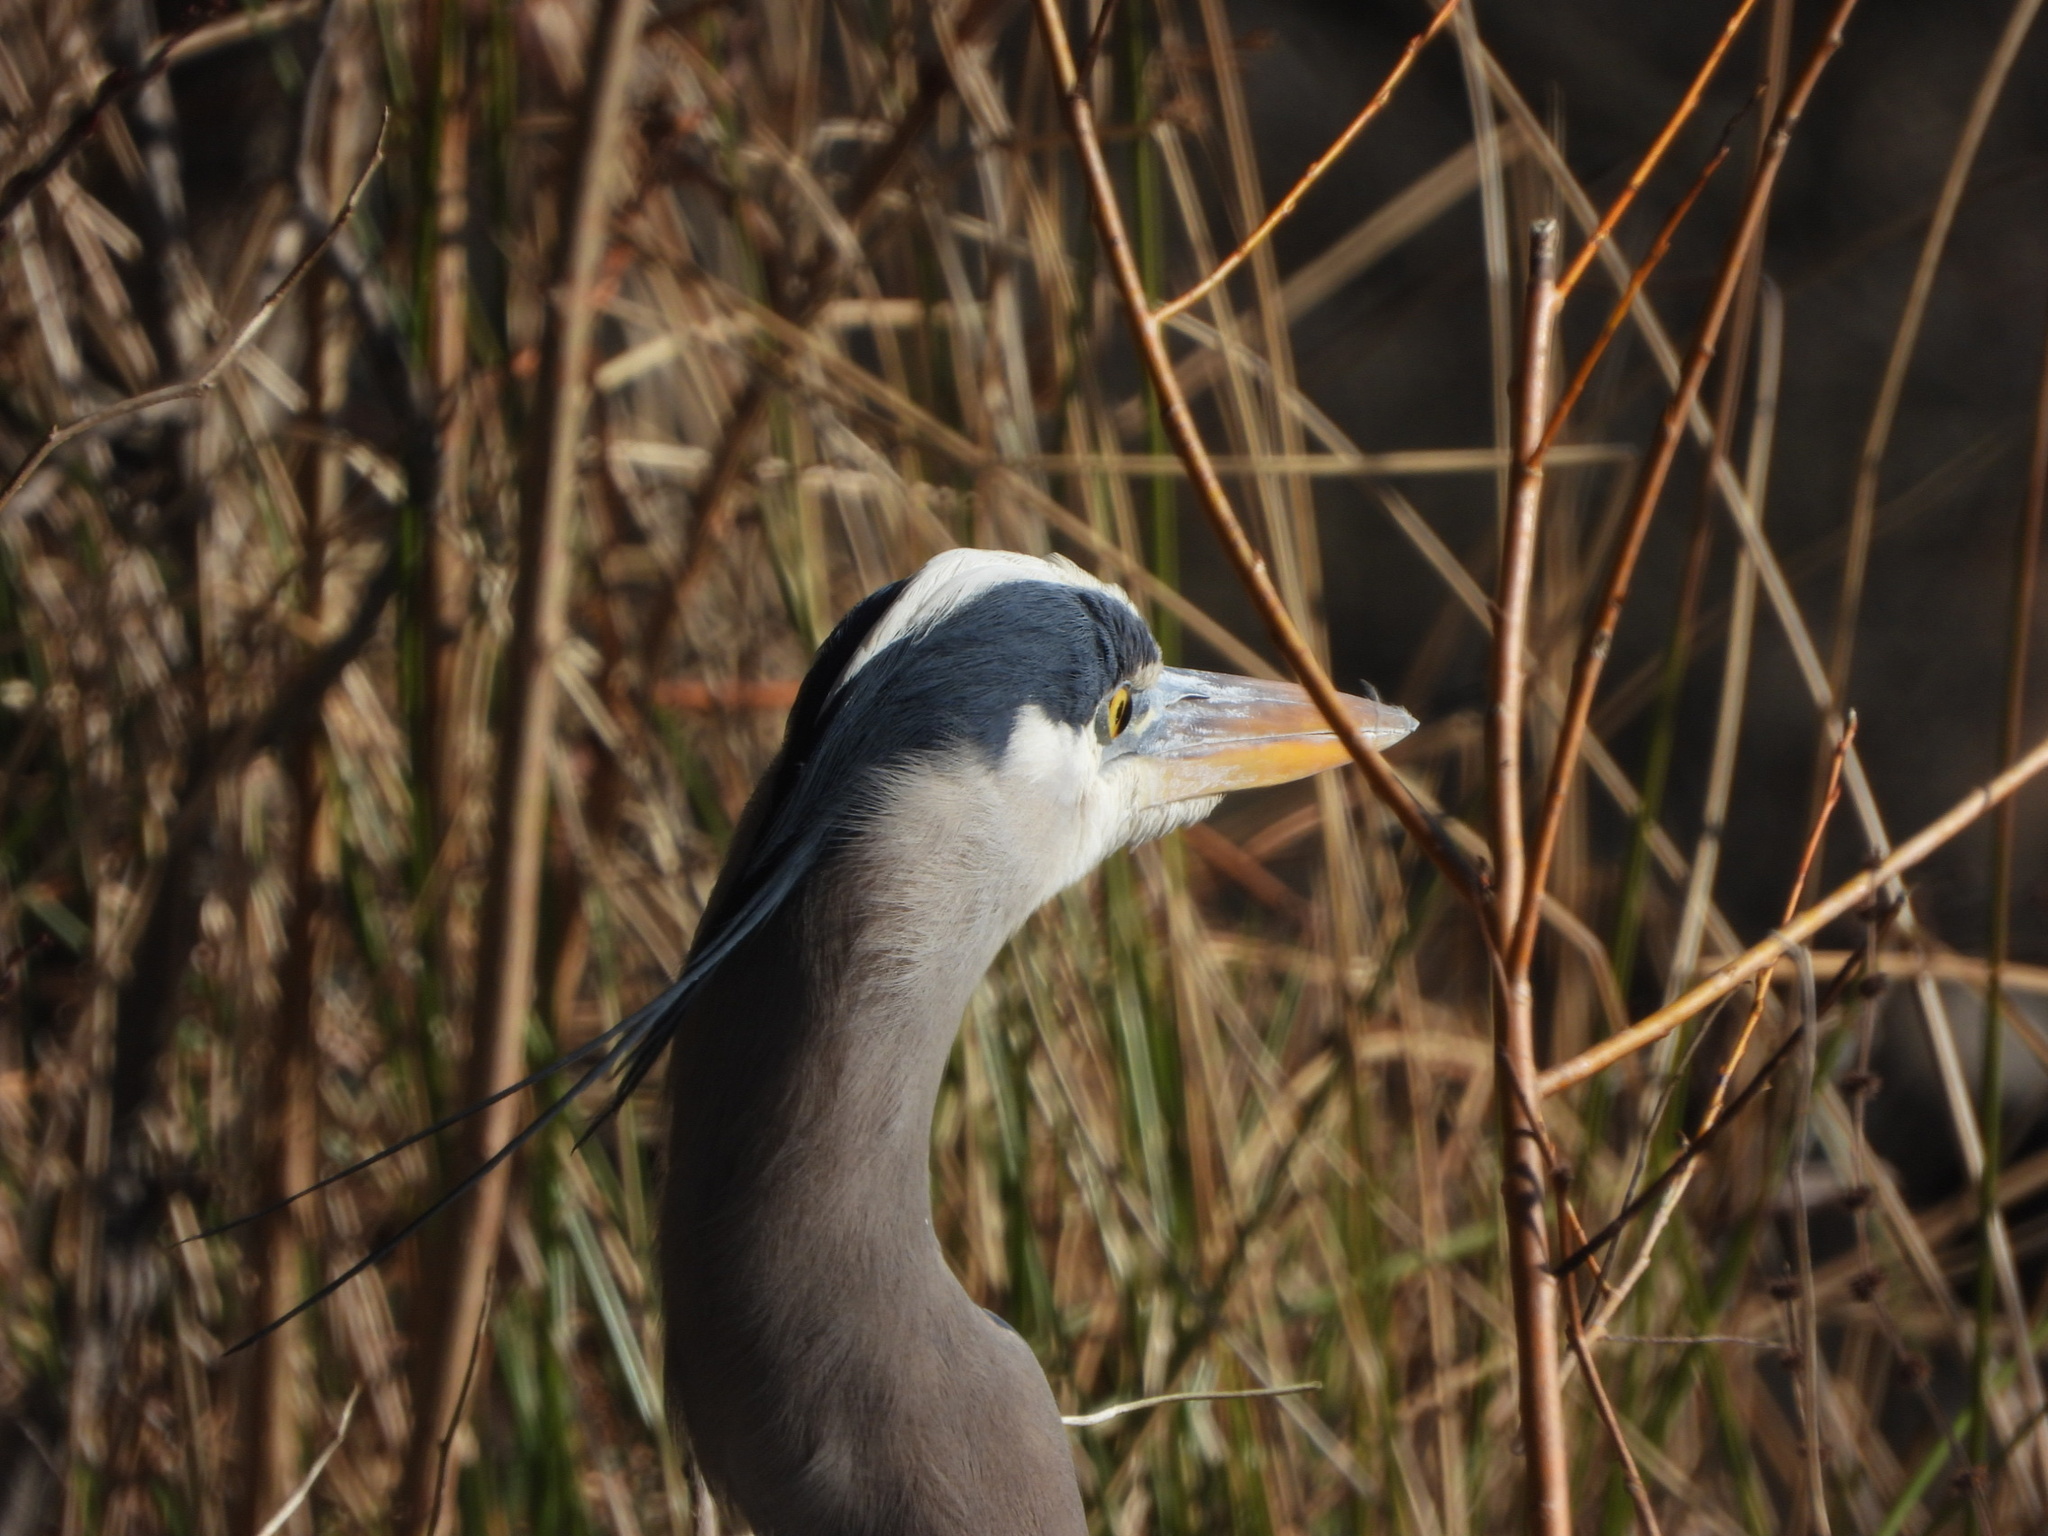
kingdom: Animalia
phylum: Chordata
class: Aves
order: Pelecaniformes
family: Ardeidae
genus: Ardea
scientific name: Ardea herodias
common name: Great blue heron
